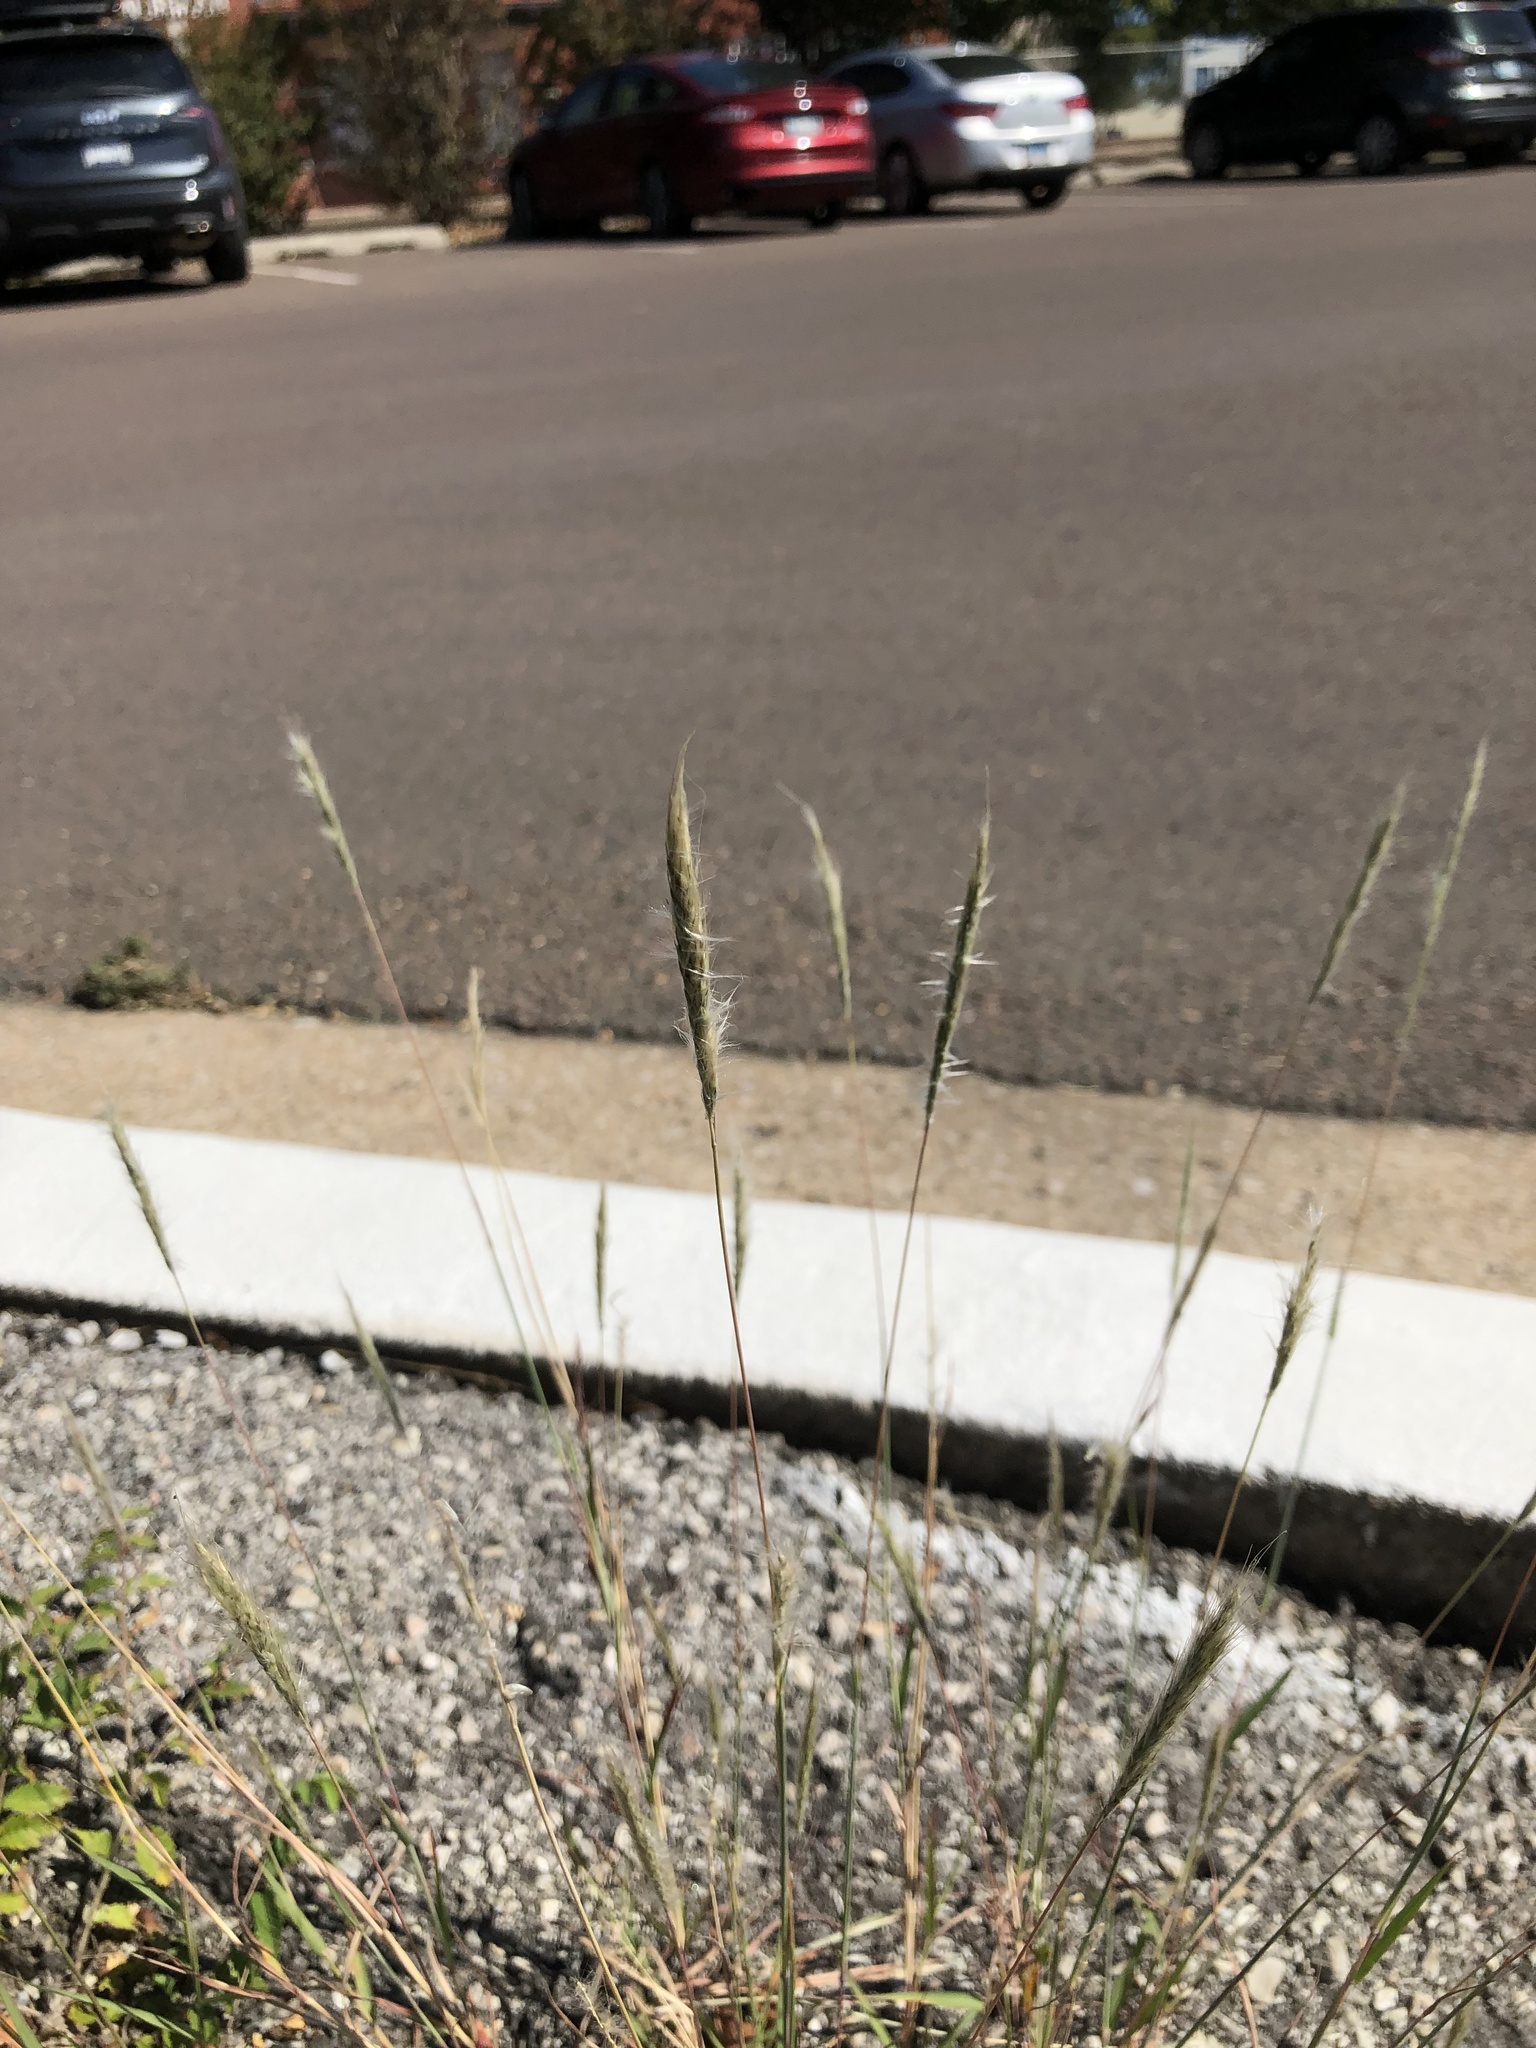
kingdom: Plantae
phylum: Tracheophyta
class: Liliopsida
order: Poales
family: Poaceae
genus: Bothriochloa
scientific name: Bothriochloa torreyana
